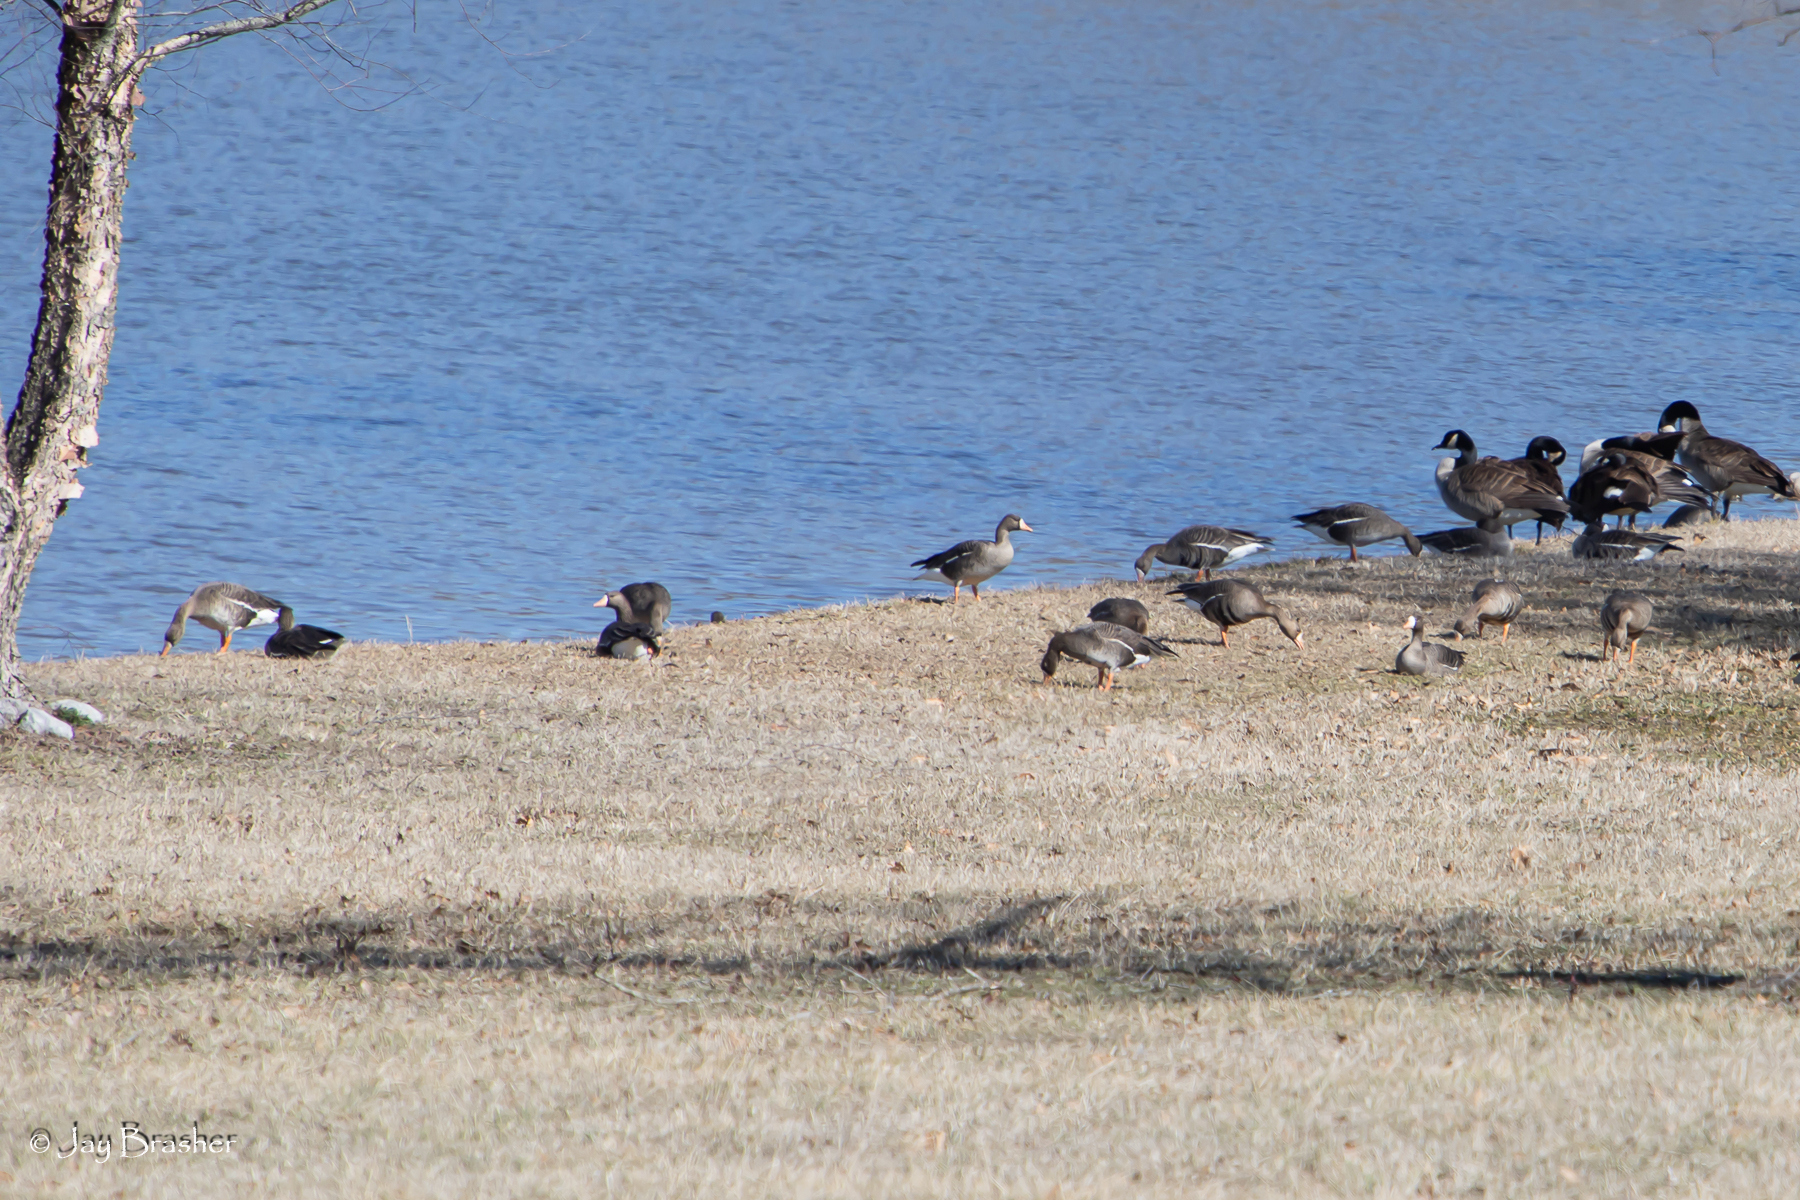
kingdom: Animalia
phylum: Chordata
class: Aves
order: Anseriformes
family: Anatidae
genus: Anser
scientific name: Anser albifrons
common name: Greater white-fronted goose
